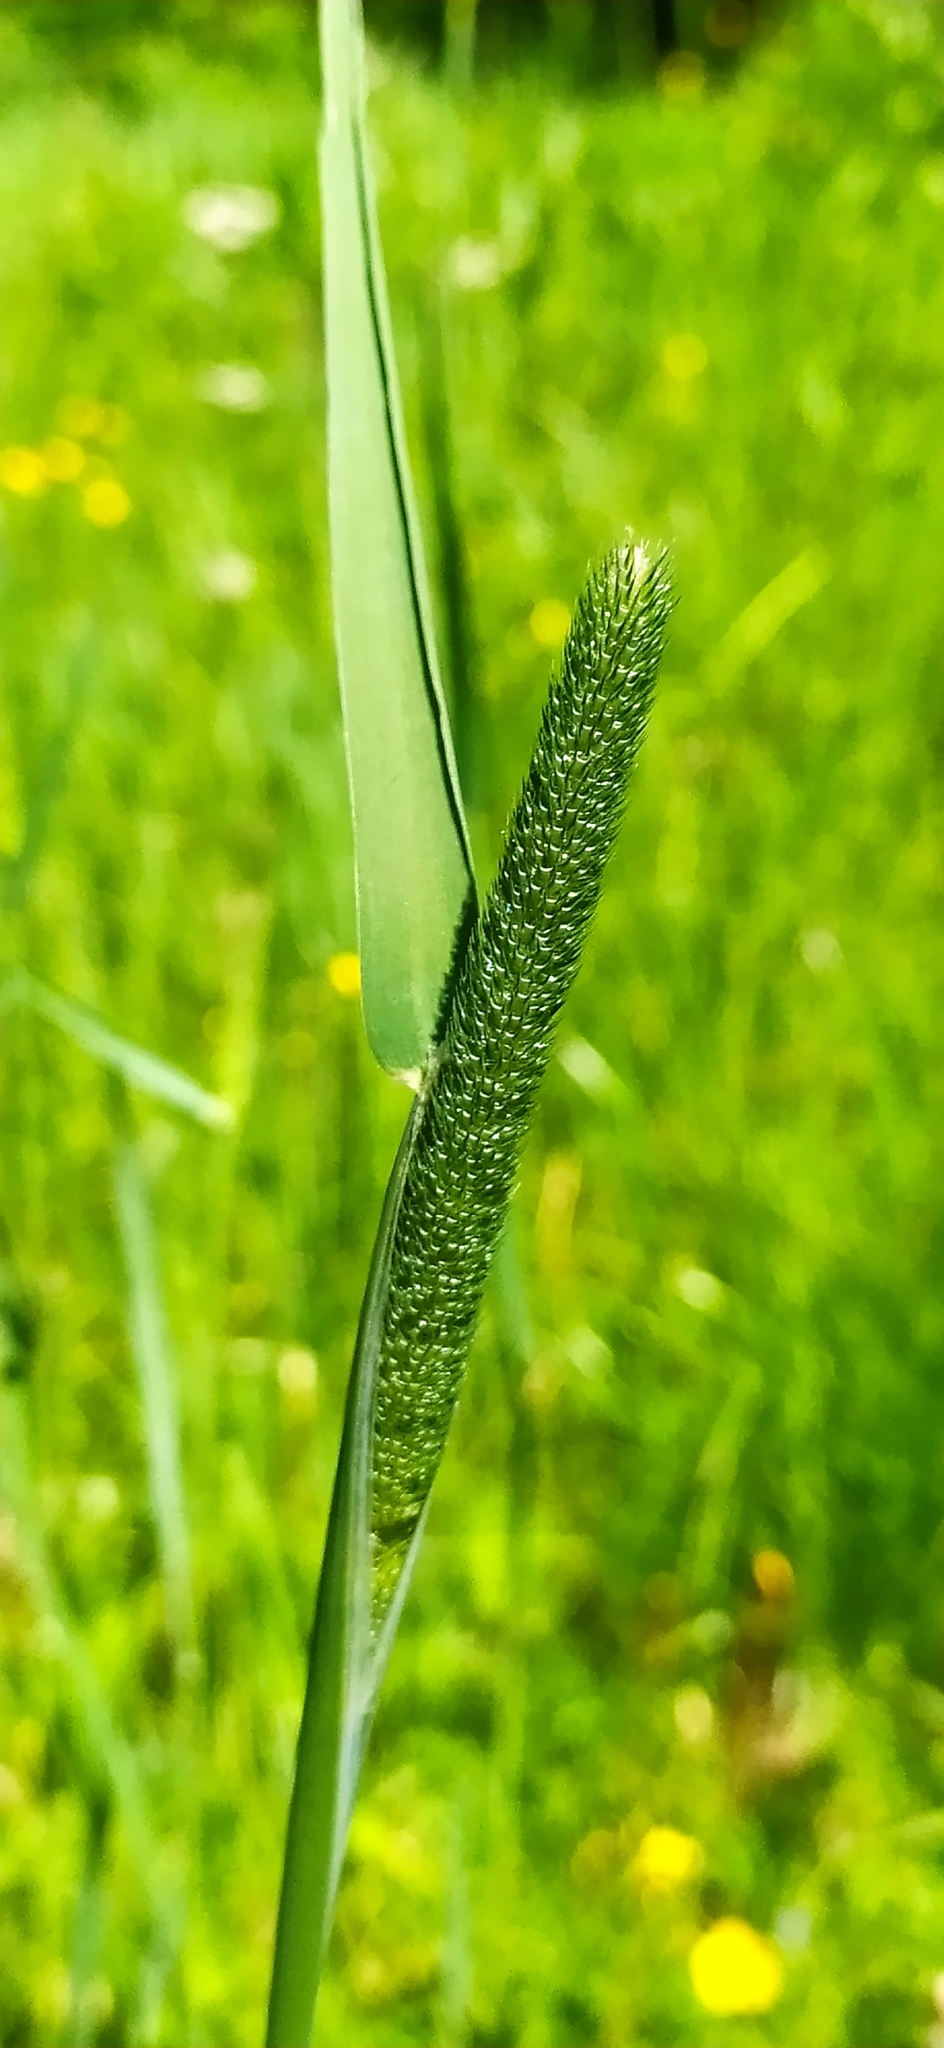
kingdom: Plantae
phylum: Tracheophyta
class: Liliopsida
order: Poales
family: Poaceae
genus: Phleum
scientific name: Phleum pratense
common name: Timothy grass
